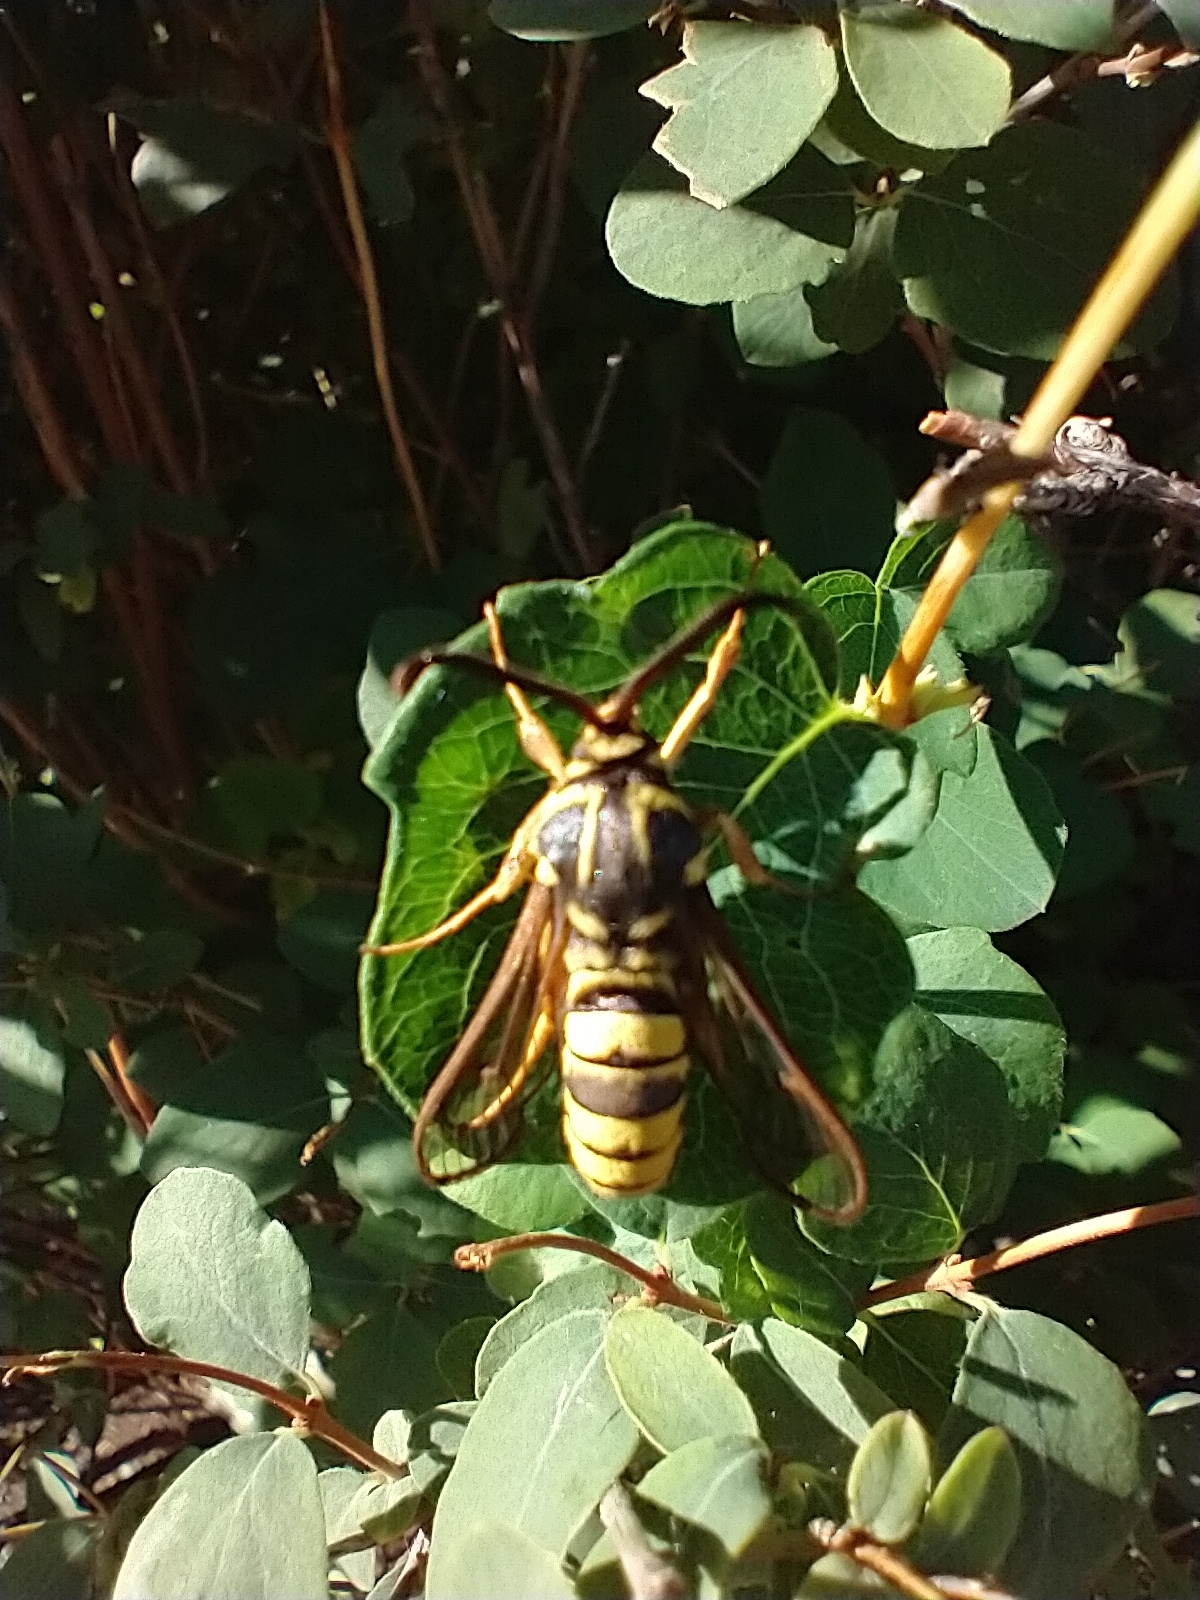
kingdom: Animalia
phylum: Arthropoda
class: Insecta
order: Lepidoptera
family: Sesiidae
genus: Sesia
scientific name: Sesia tibiale
